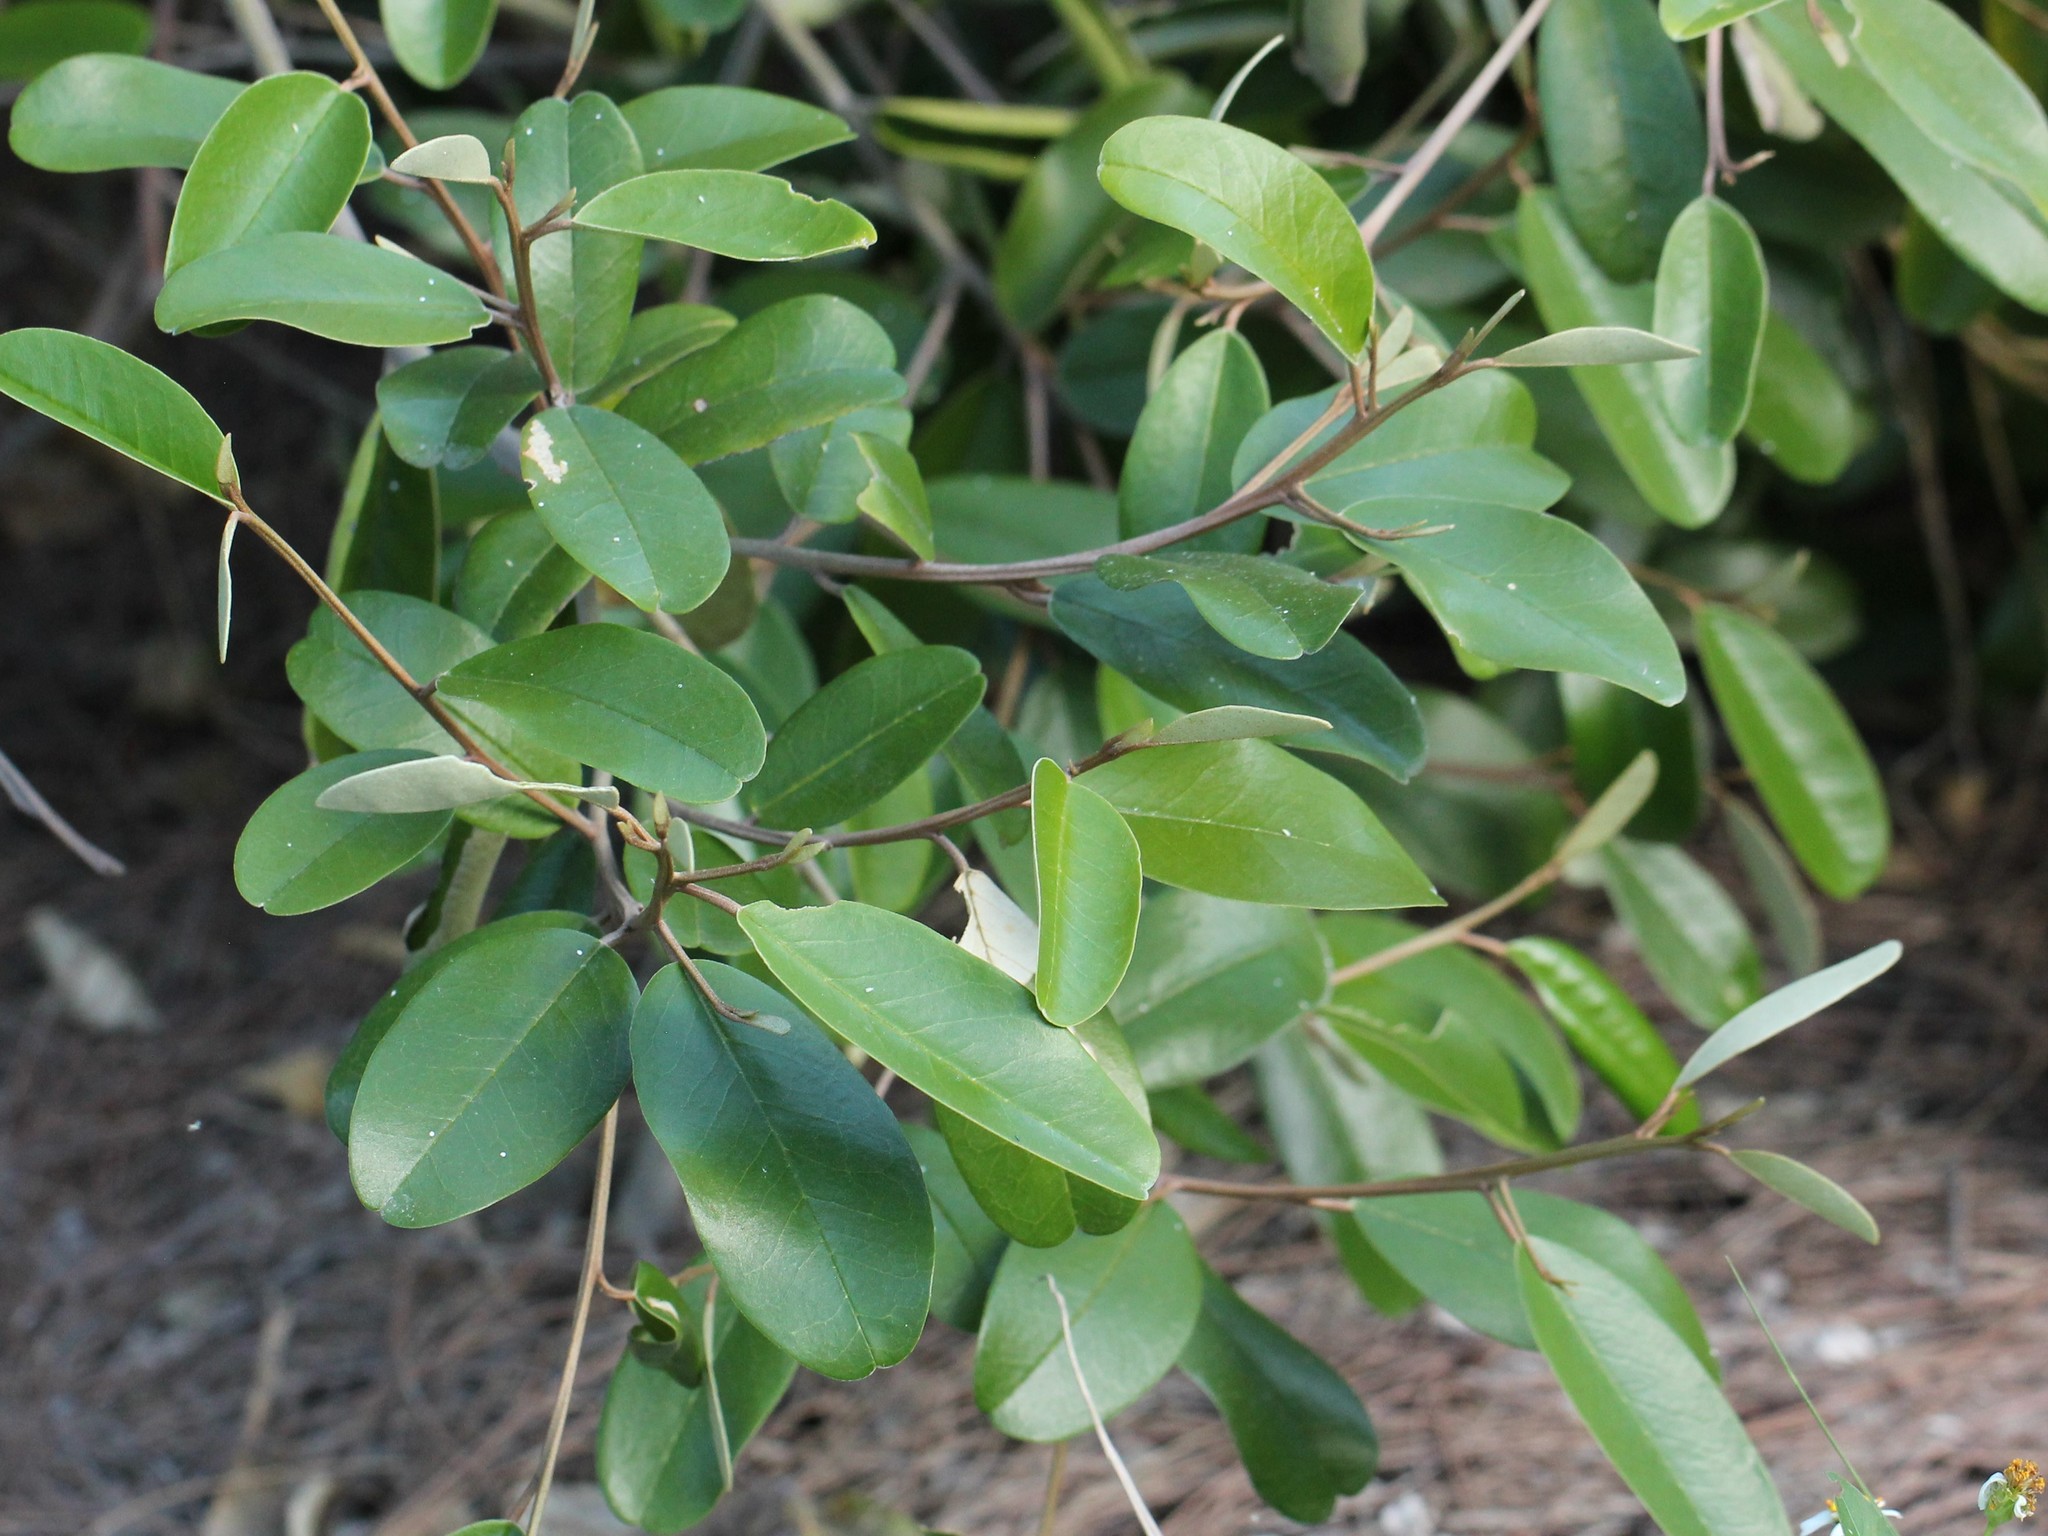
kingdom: Plantae
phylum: Tracheophyta
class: Magnoliopsida
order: Brassicales
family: Capparaceae
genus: Quadrella
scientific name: Quadrella cynophallophora
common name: Black willow
